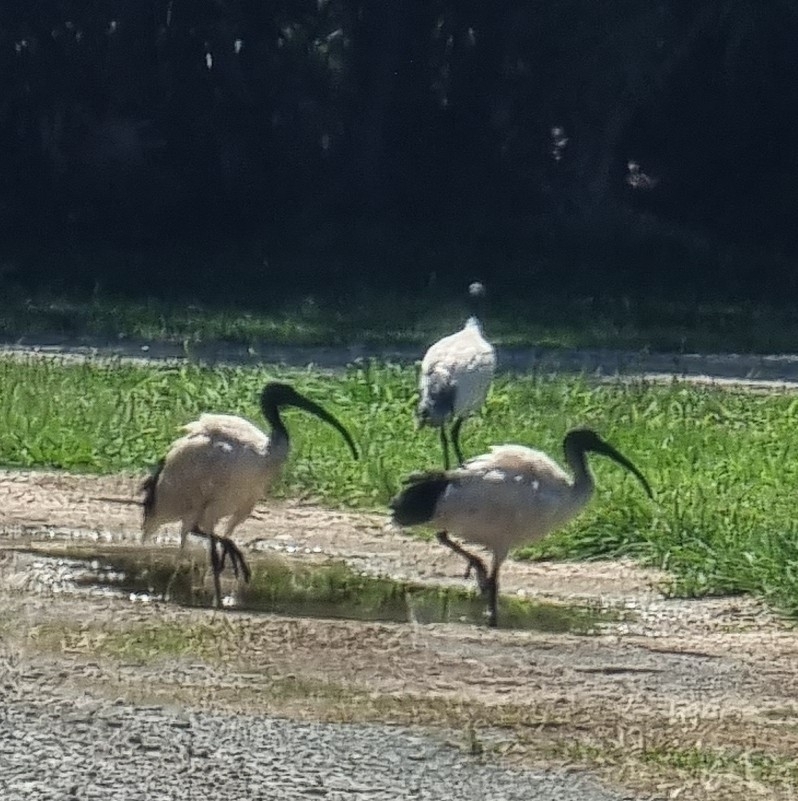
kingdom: Animalia
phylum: Chordata
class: Aves
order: Pelecaniformes
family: Threskiornithidae
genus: Threskiornis
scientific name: Threskiornis molucca
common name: Australian white ibis
